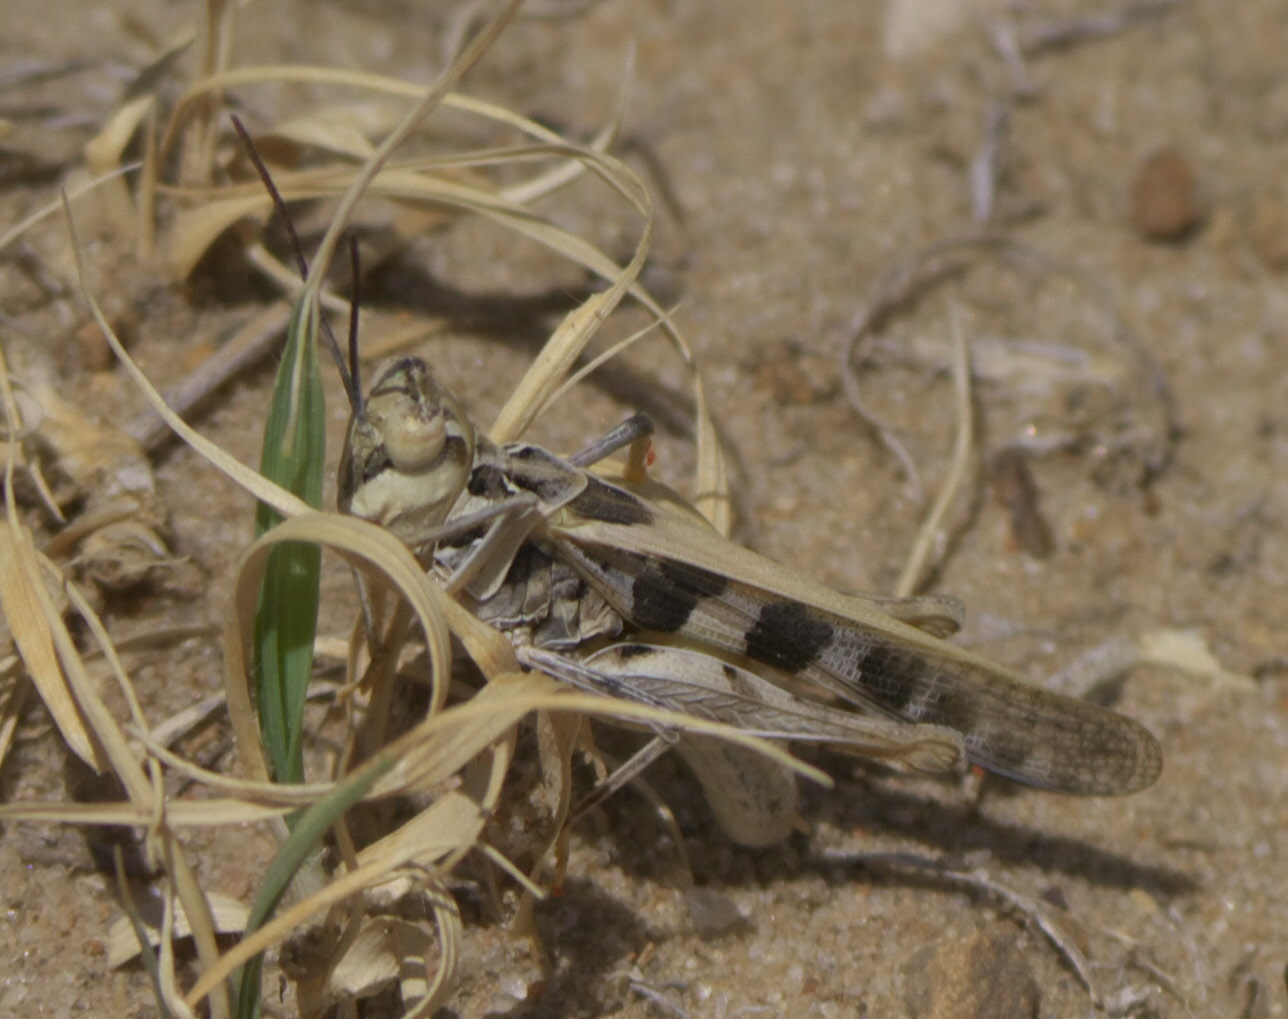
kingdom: Animalia
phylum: Arthropoda
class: Insecta
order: Orthoptera
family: Acrididae
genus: Hippopedon
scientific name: Hippopedon capito
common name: Apache grasshopper
